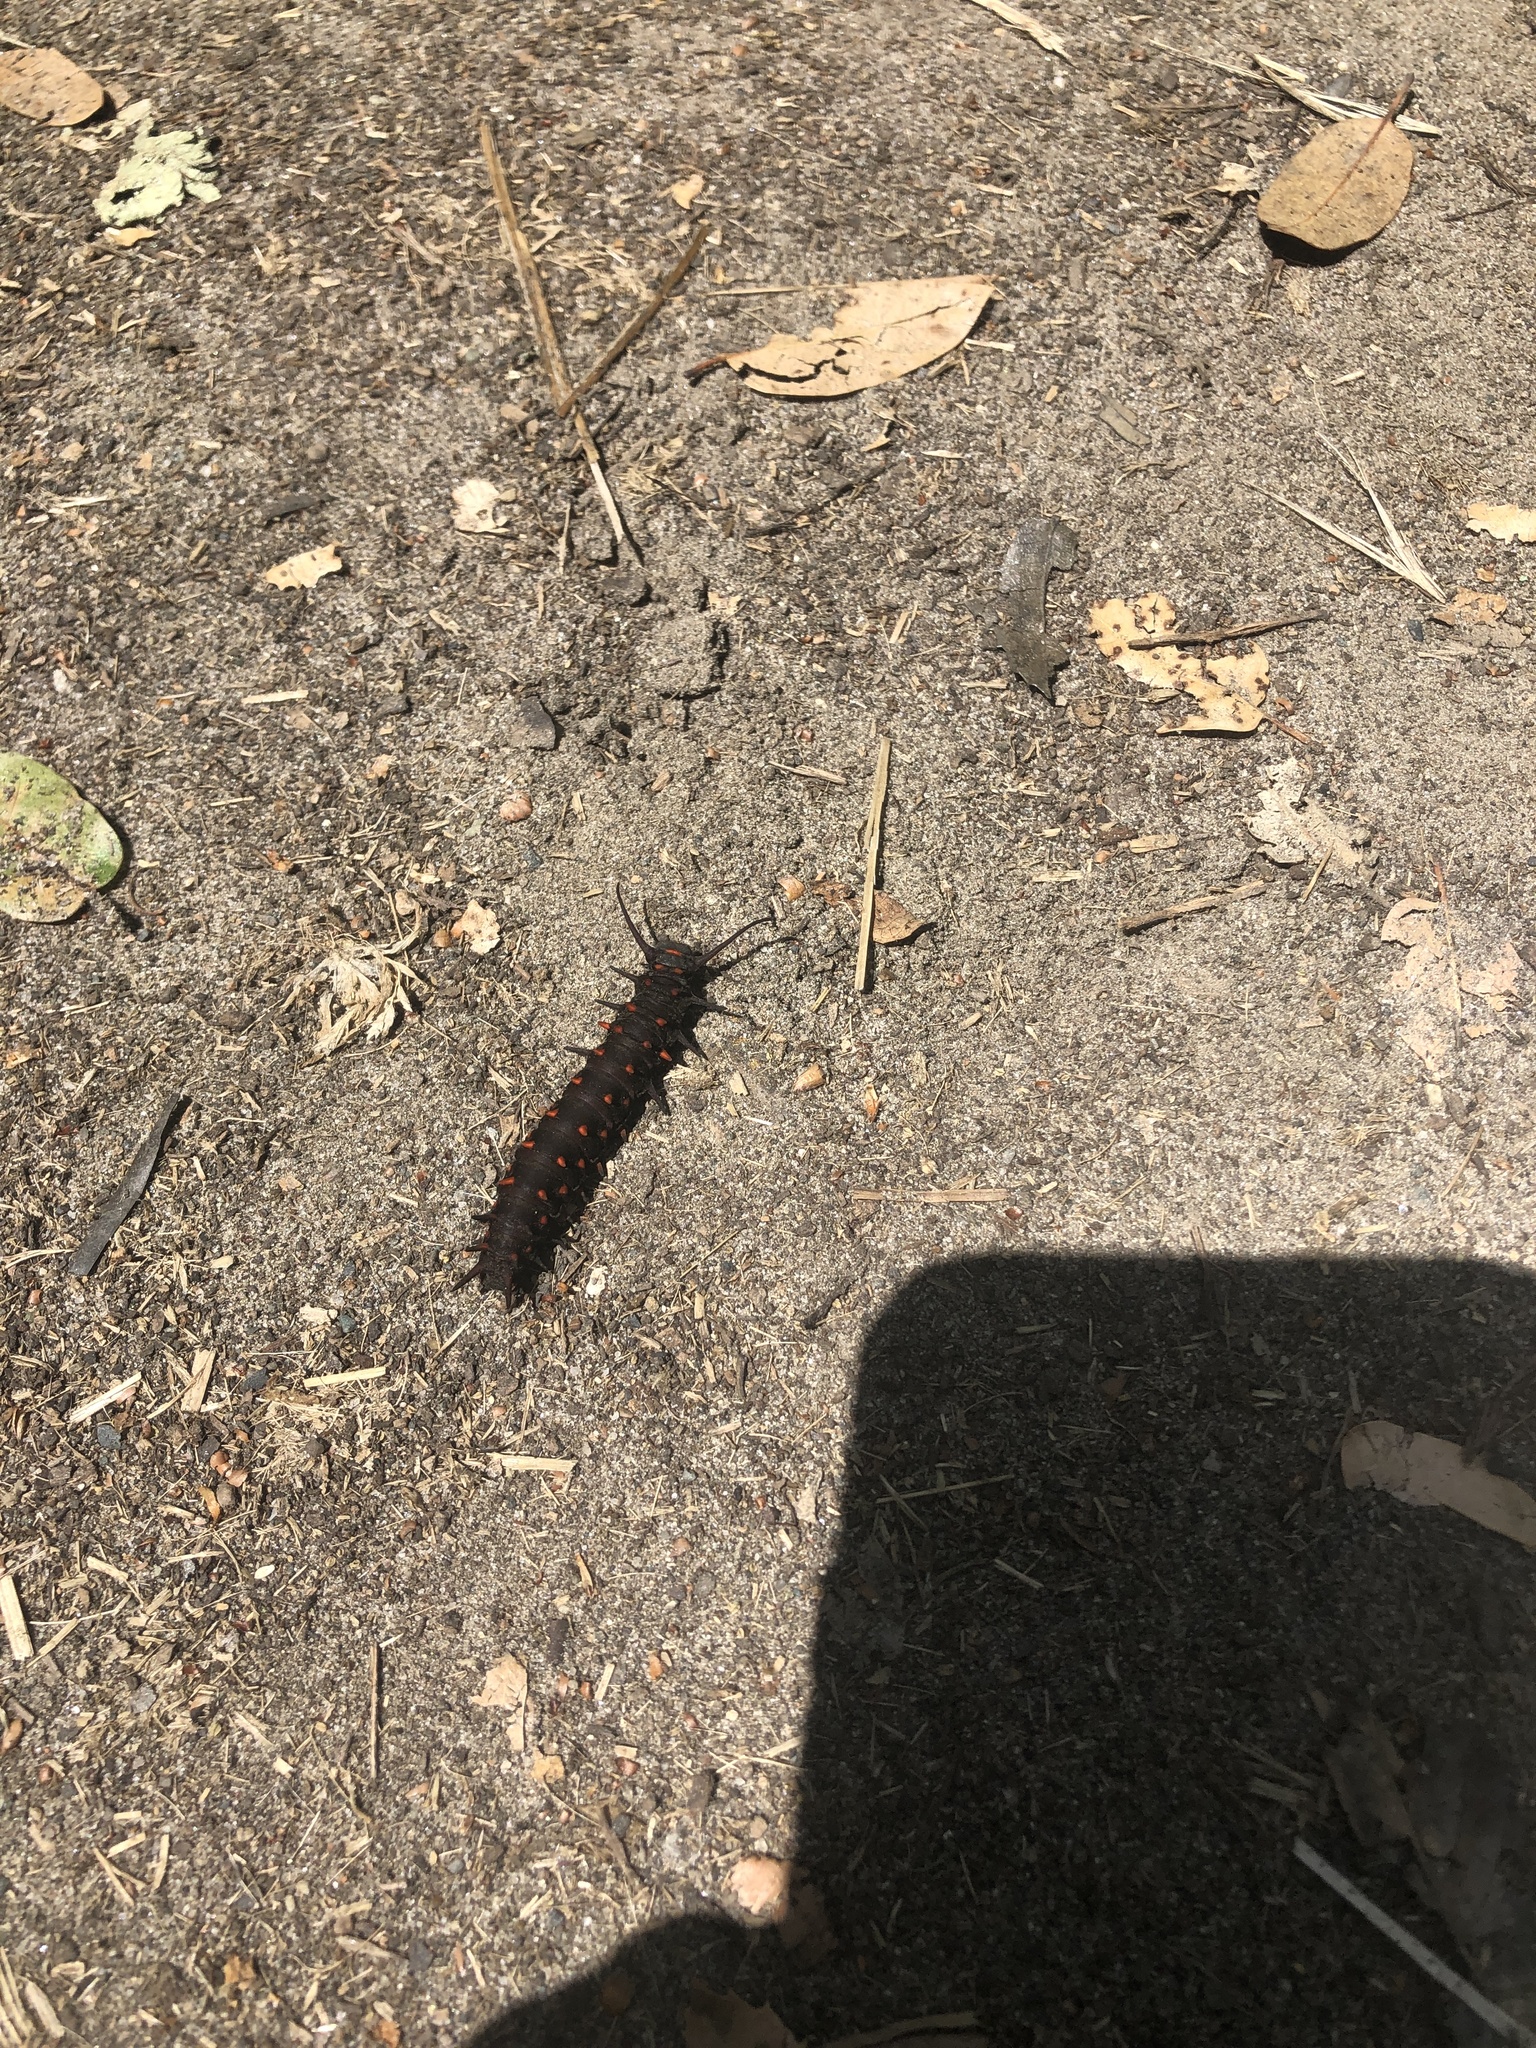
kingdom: Animalia
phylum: Arthropoda
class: Insecta
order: Lepidoptera
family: Papilionidae
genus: Battus
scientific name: Battus philenor
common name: Pipevine swallowtail
